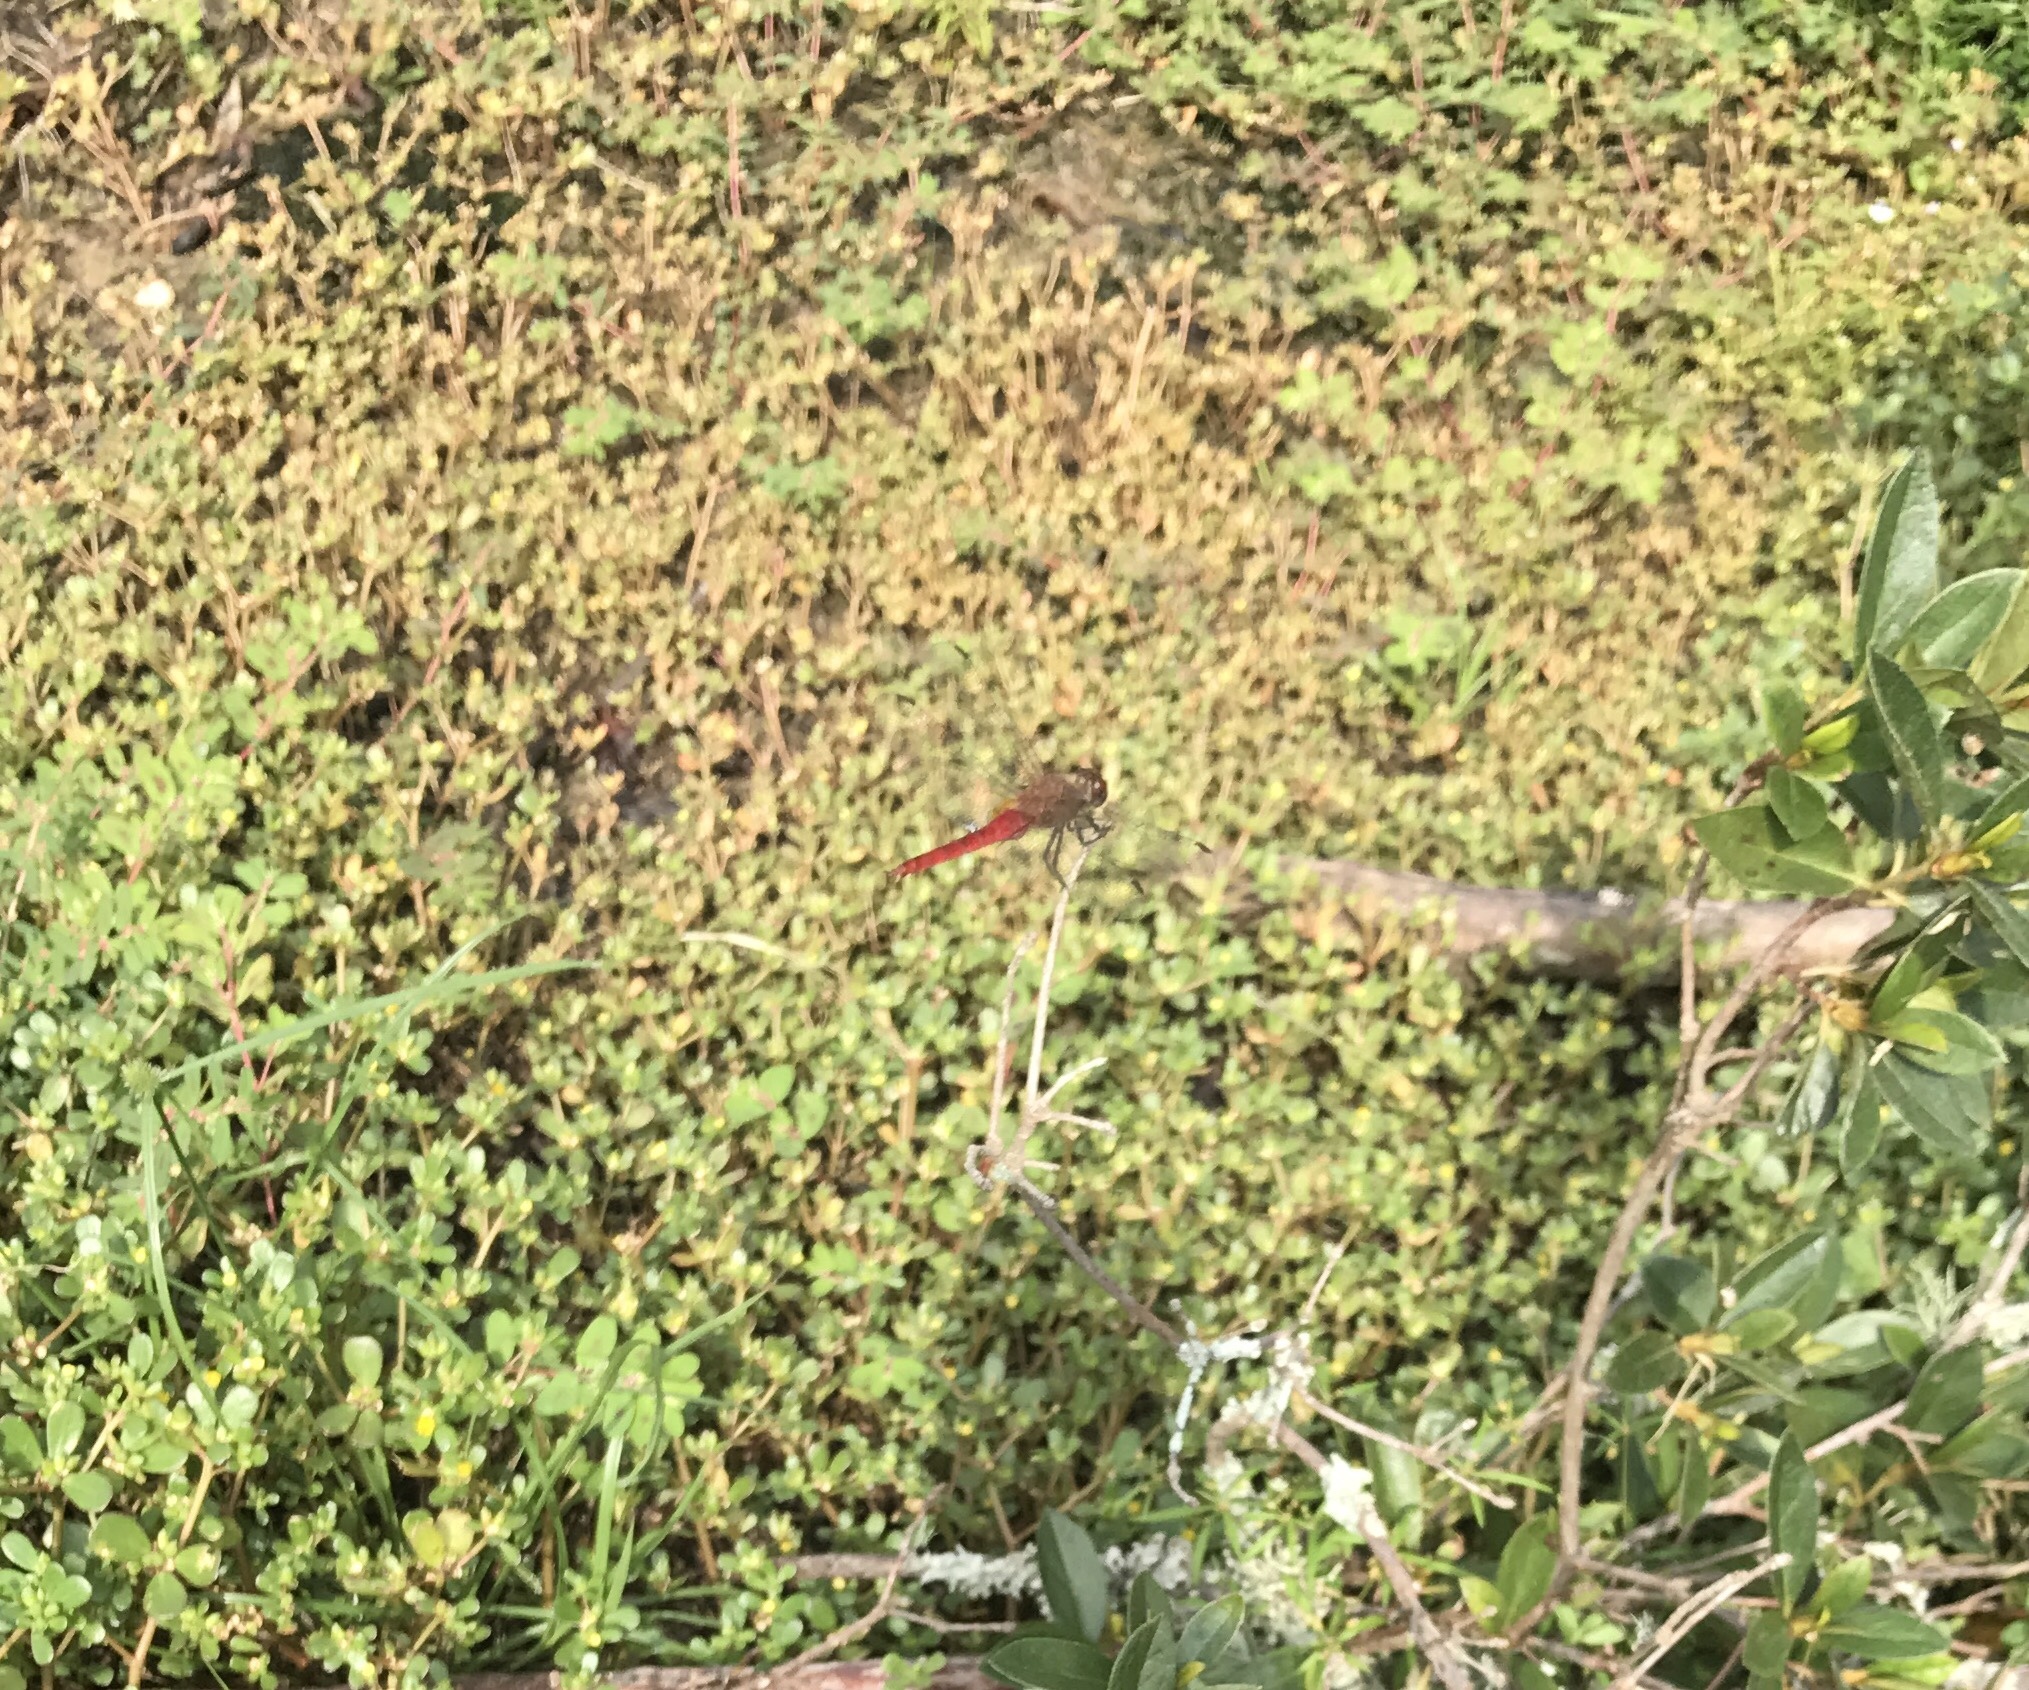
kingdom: Animalia
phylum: Arthropoda
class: Insecta
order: Odonata
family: Libellulidae
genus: Brachymesia
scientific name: Brachymesia furcata
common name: Red-taled pennant
